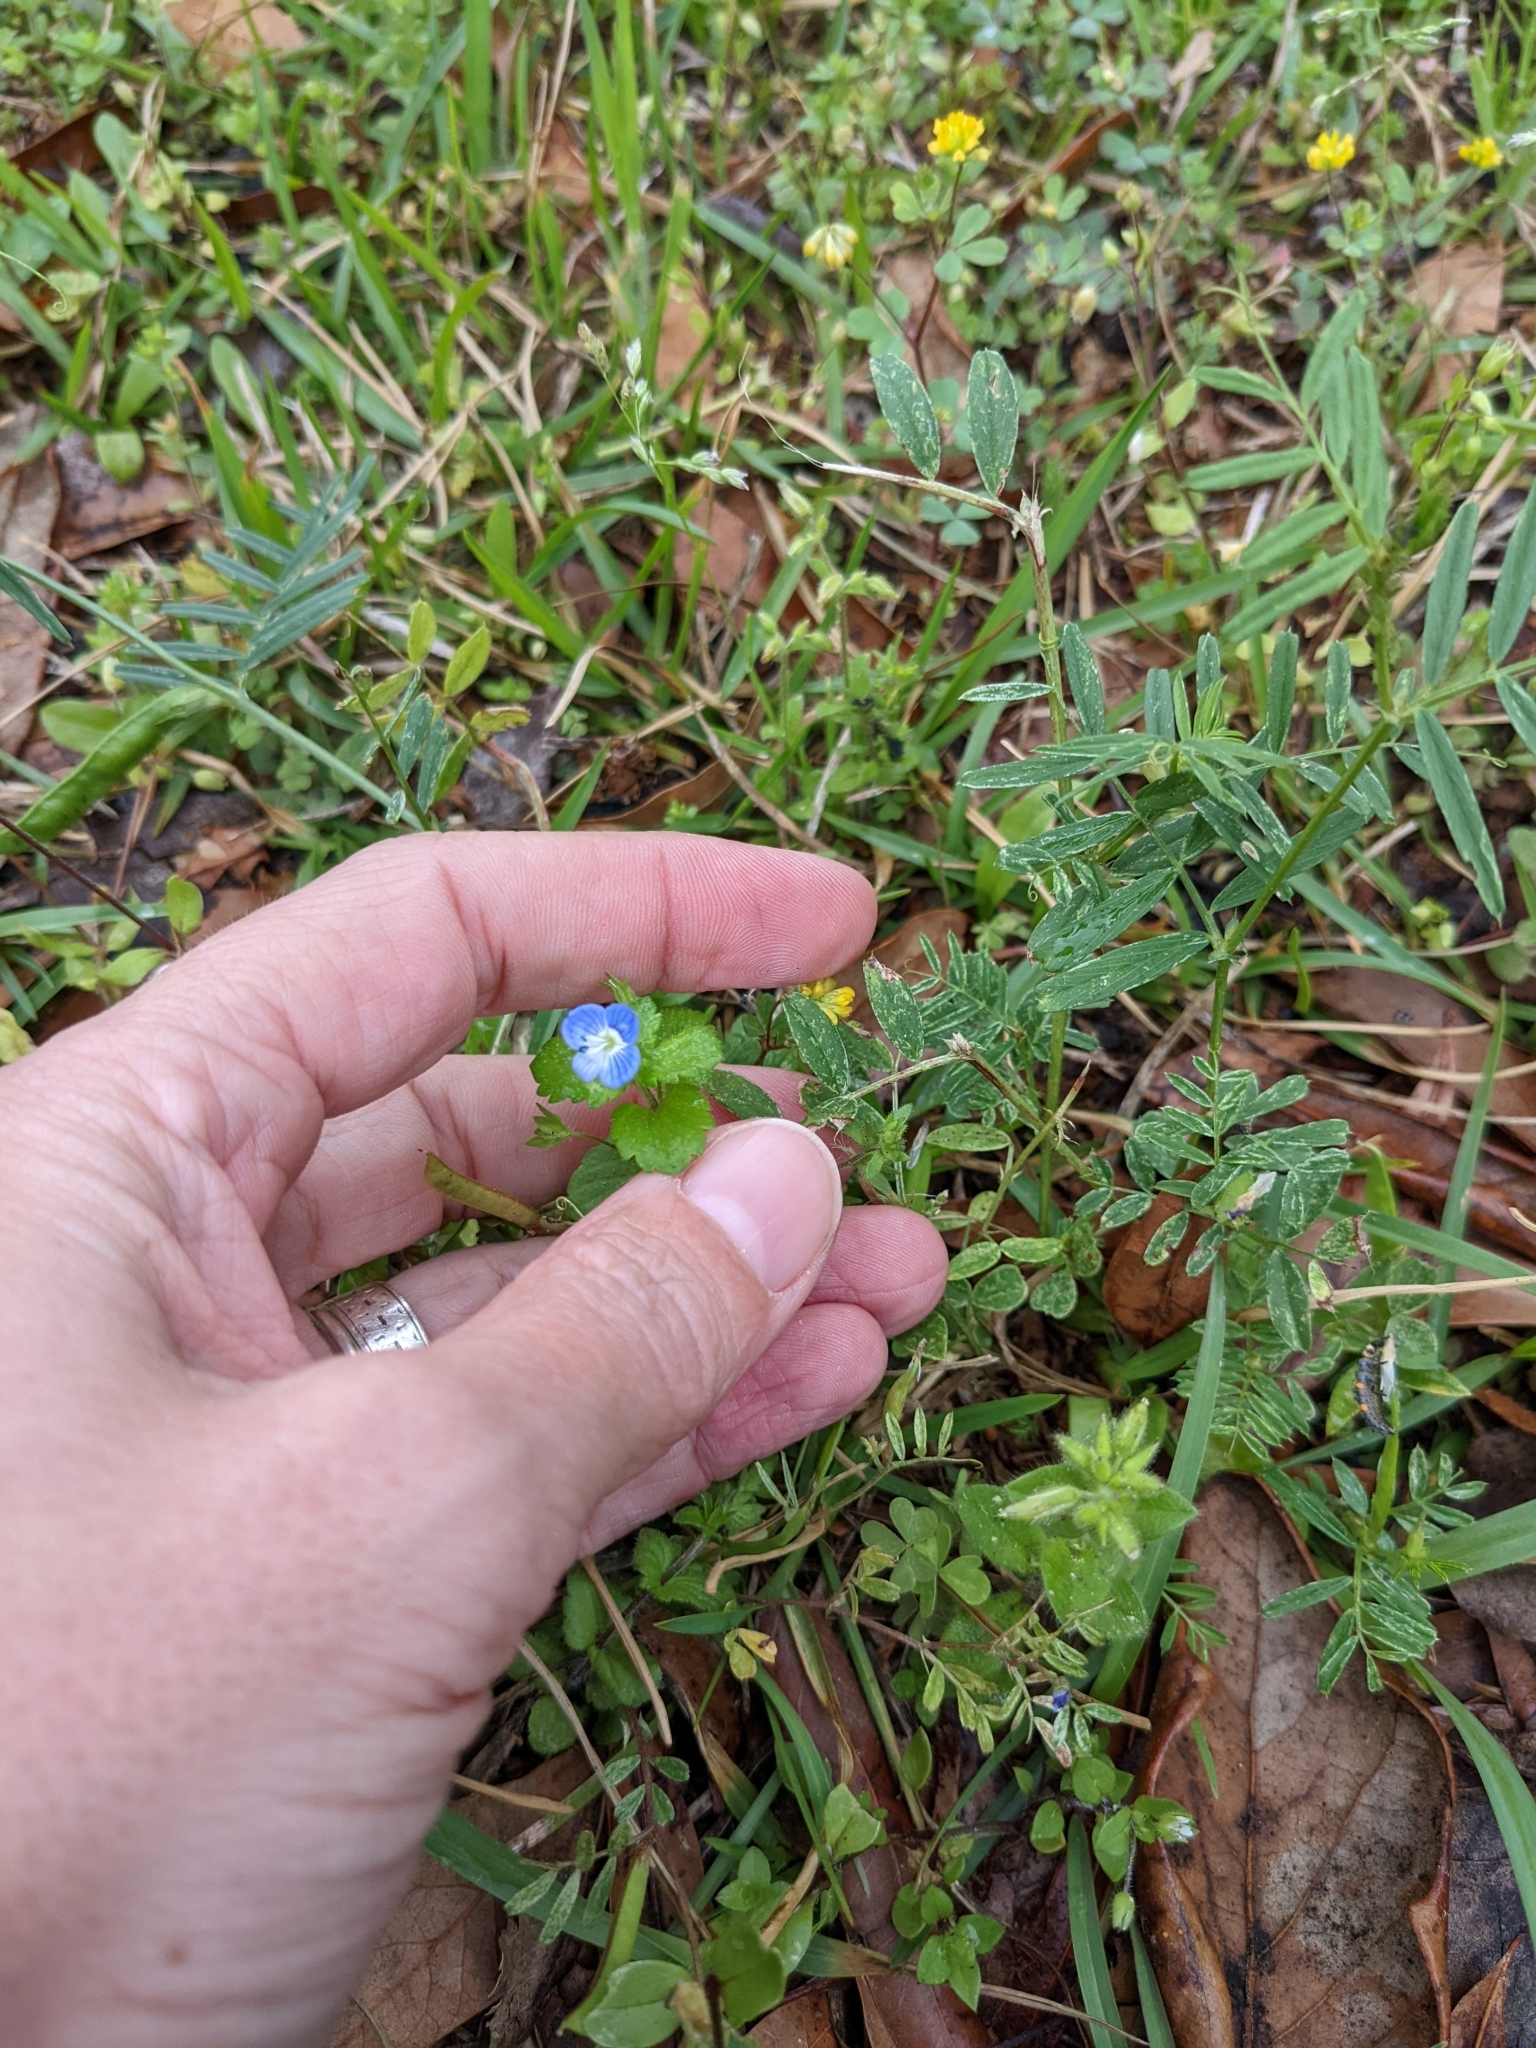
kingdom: Plantae
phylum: Tracheophyta
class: Magnoliopsida
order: Lamiales
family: Plantaginaceae
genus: Veronica
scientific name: Veronica persica
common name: Common field-speedwell
